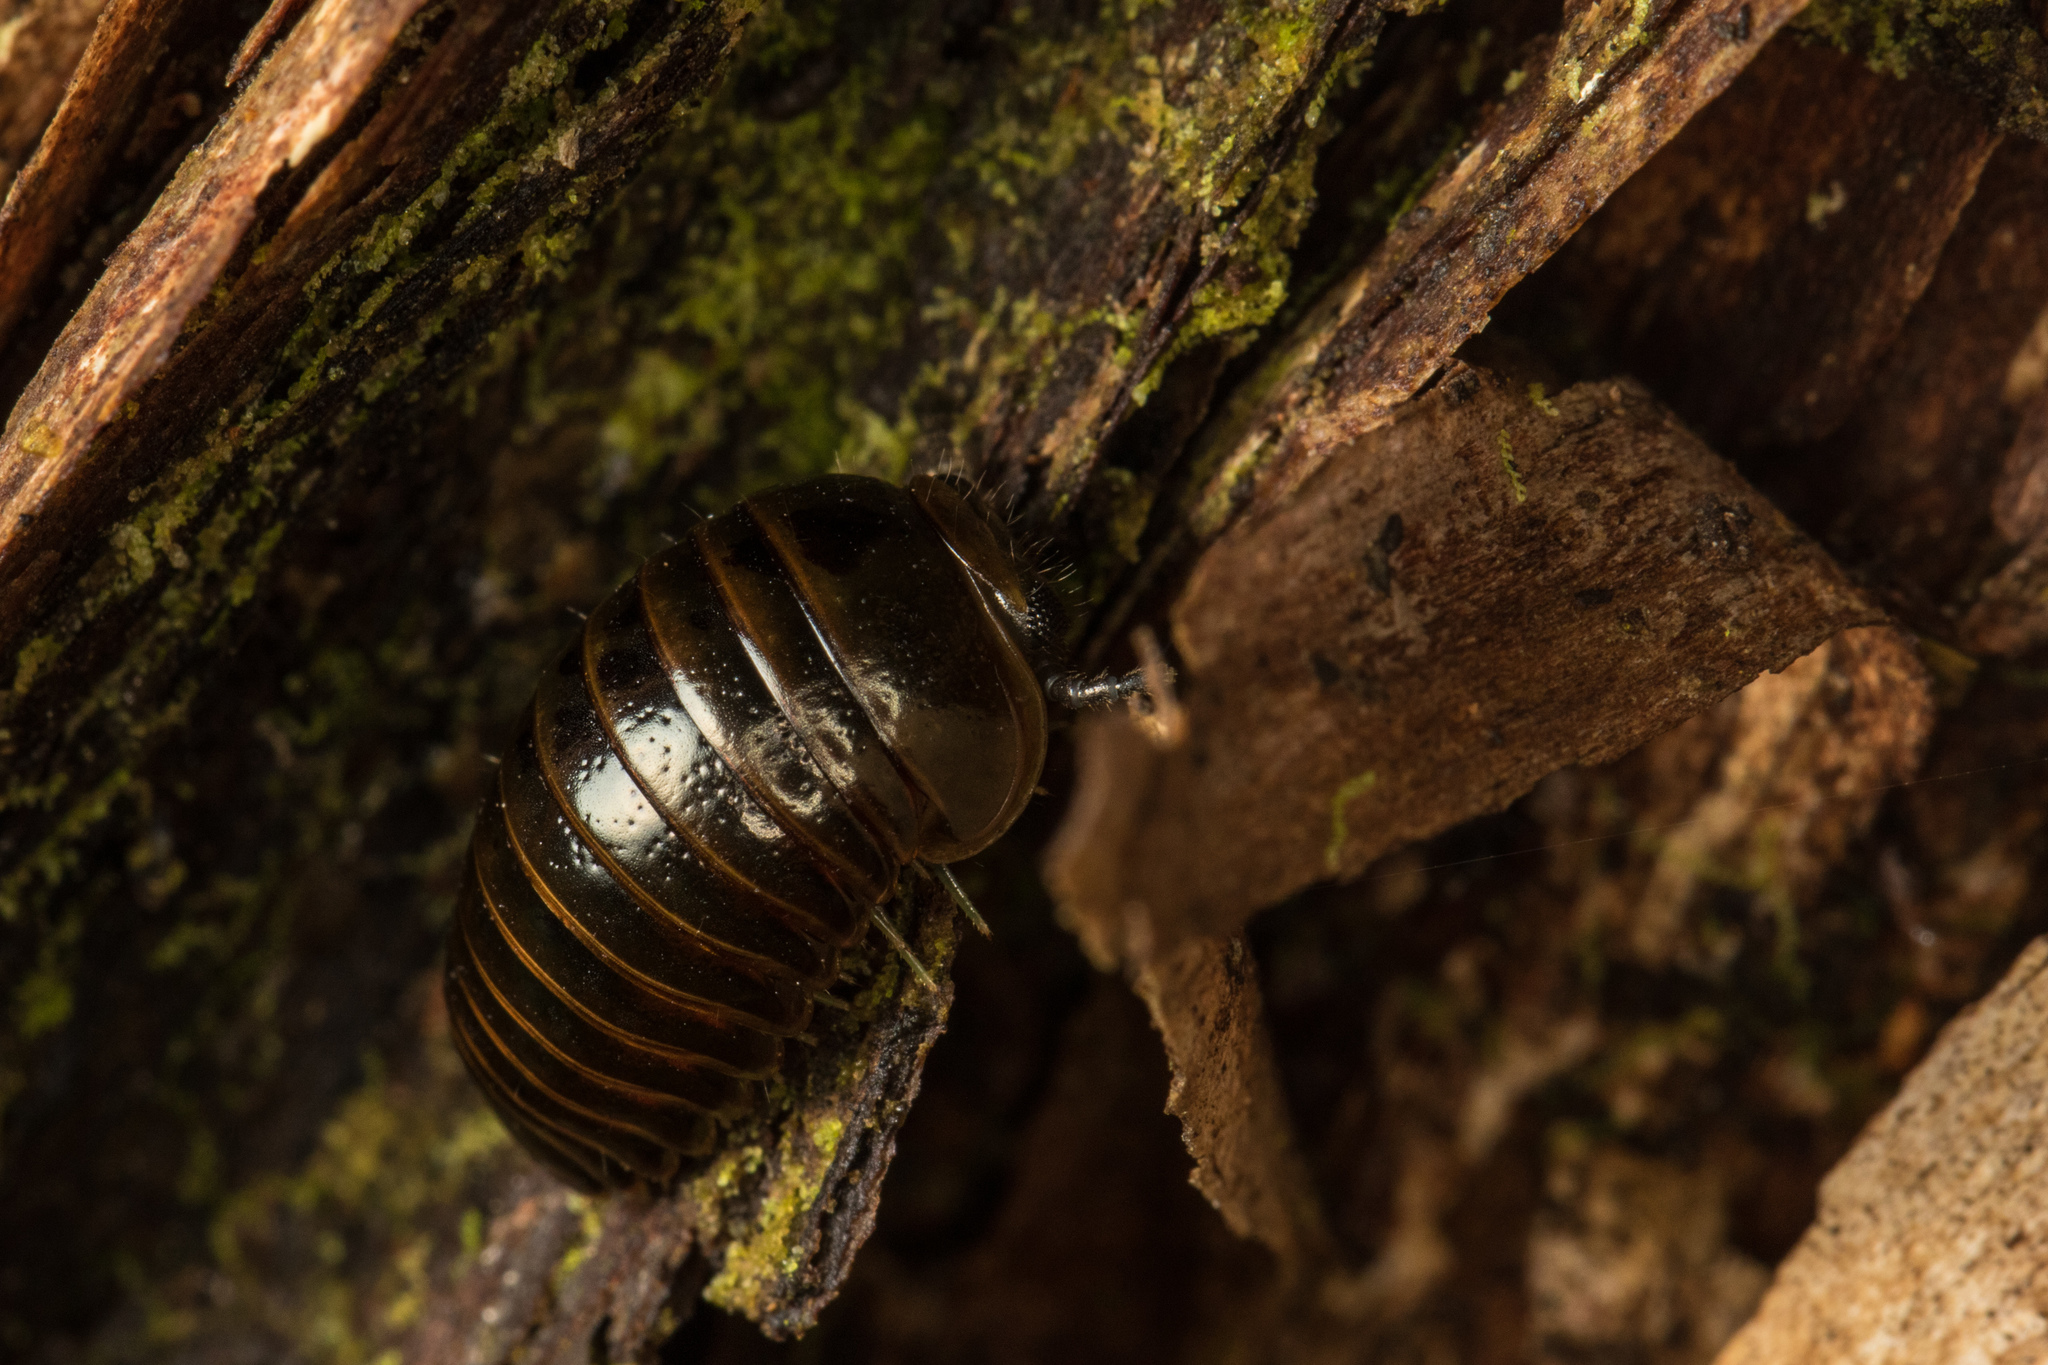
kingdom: Animalia
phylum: Arthropoda
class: Diplopoda
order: Sphaerotheriida
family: Procyliosomatidae
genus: Procyliosoma
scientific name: Procyliosoma delacyi
